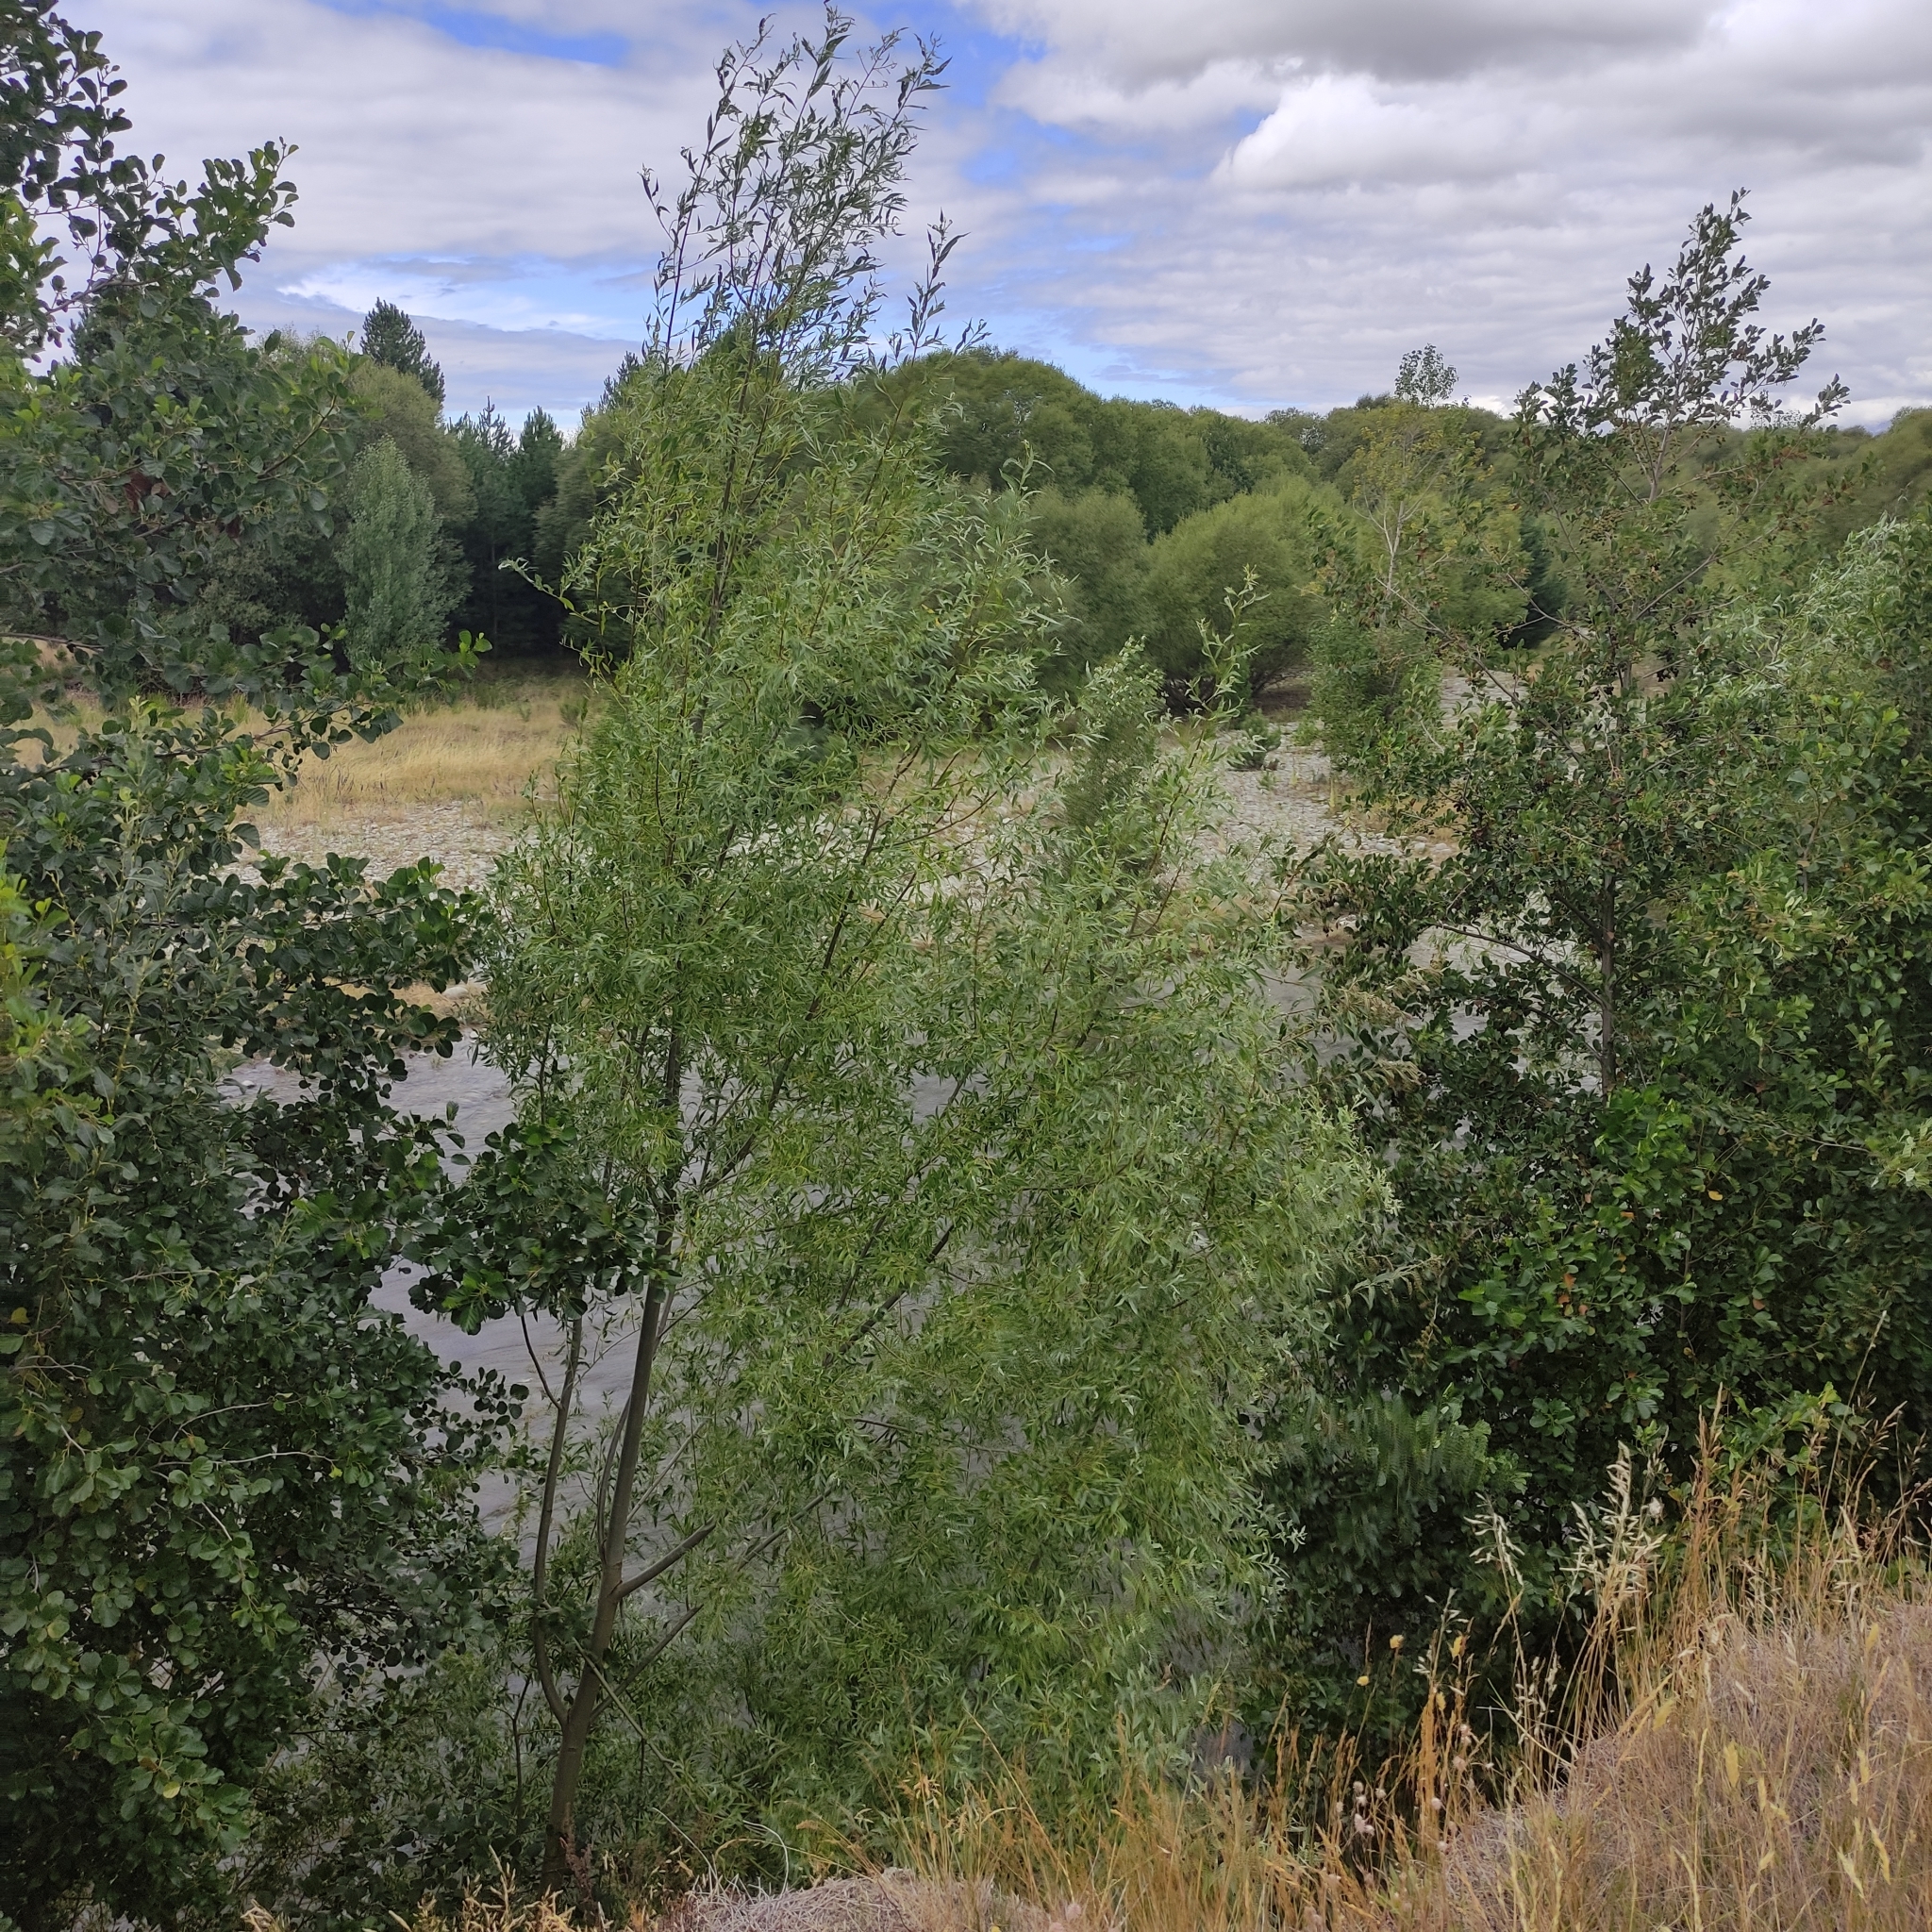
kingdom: Plantae
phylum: Tracheophyta
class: Magnoliopsida
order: Malpighiales
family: Salicaceae
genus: Salix
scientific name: Salix fragilis
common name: Crack willow
